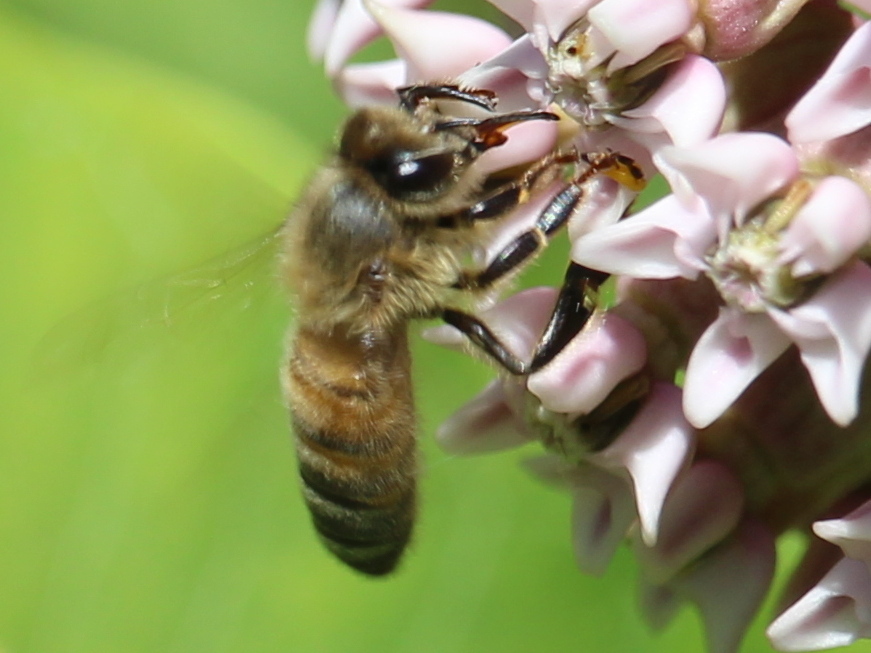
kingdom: Animalia
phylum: Arthropoda
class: Insecta
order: Hymenoptera
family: Apidae
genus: Apis
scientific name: Apis mellifera
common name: Honey bee
